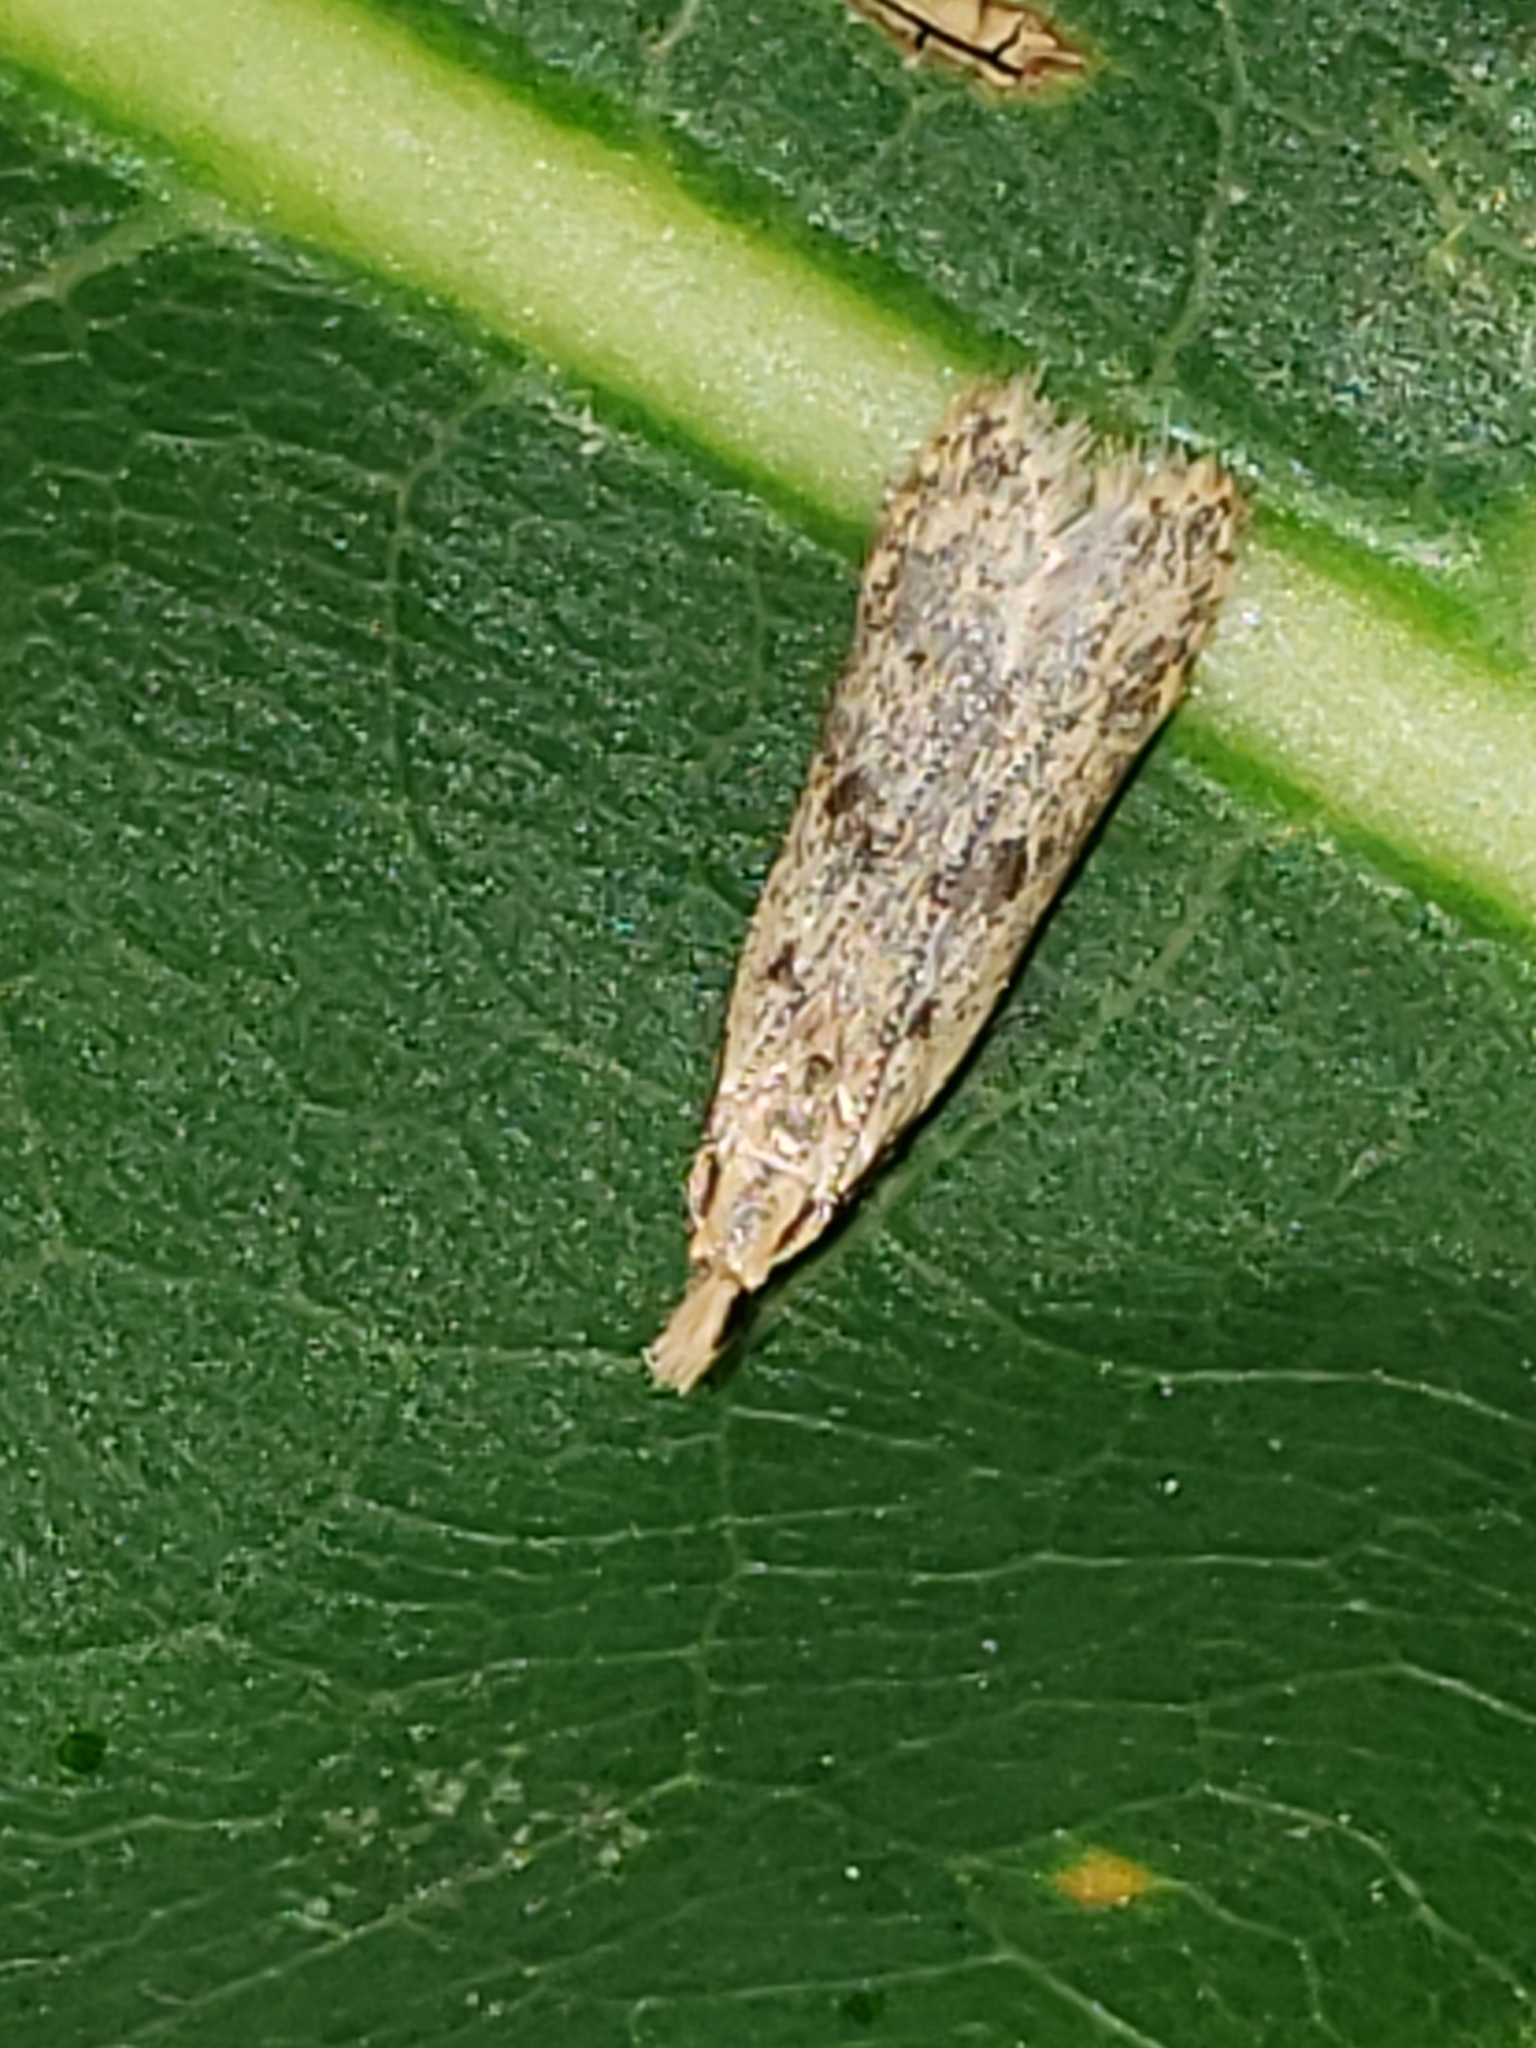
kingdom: Animalia
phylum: Arthropoda
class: Insecta
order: Lepidoptera
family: Gelechiidae
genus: Dichomeris
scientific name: Dichomeris punctipennella
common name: Many-spotted dichomeris moth
